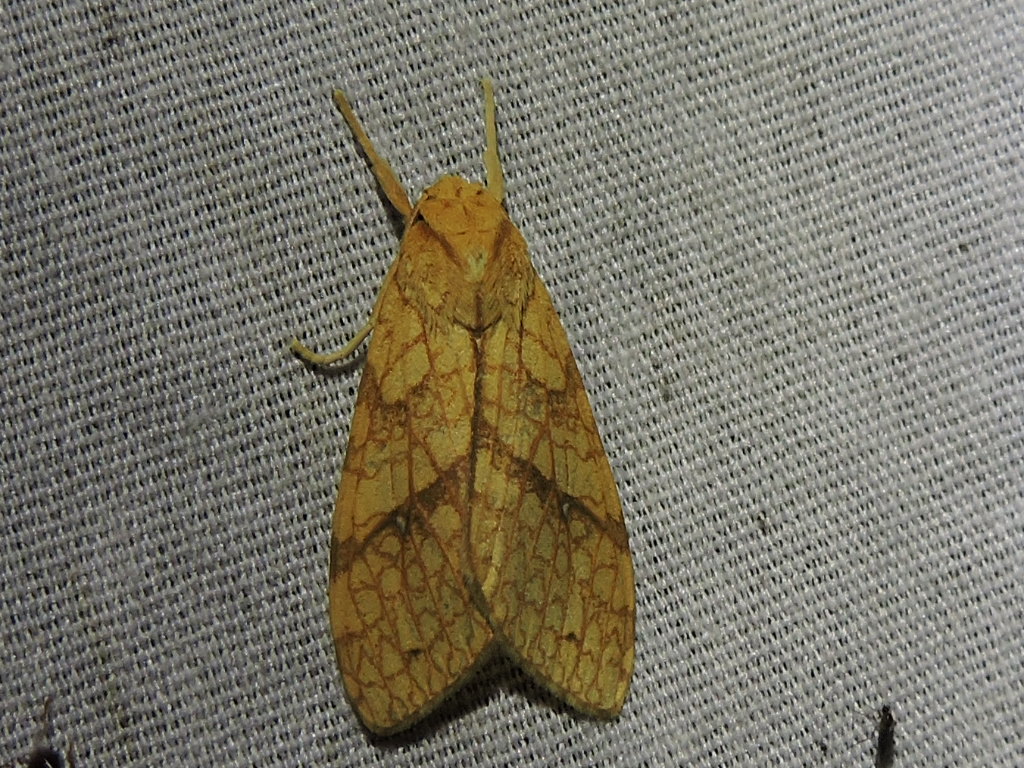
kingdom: Animalia
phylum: Arthropoda
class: Insecta
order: Lepidoptera
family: Erebidae
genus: Lophocampa
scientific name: Lophocampa annulosa
